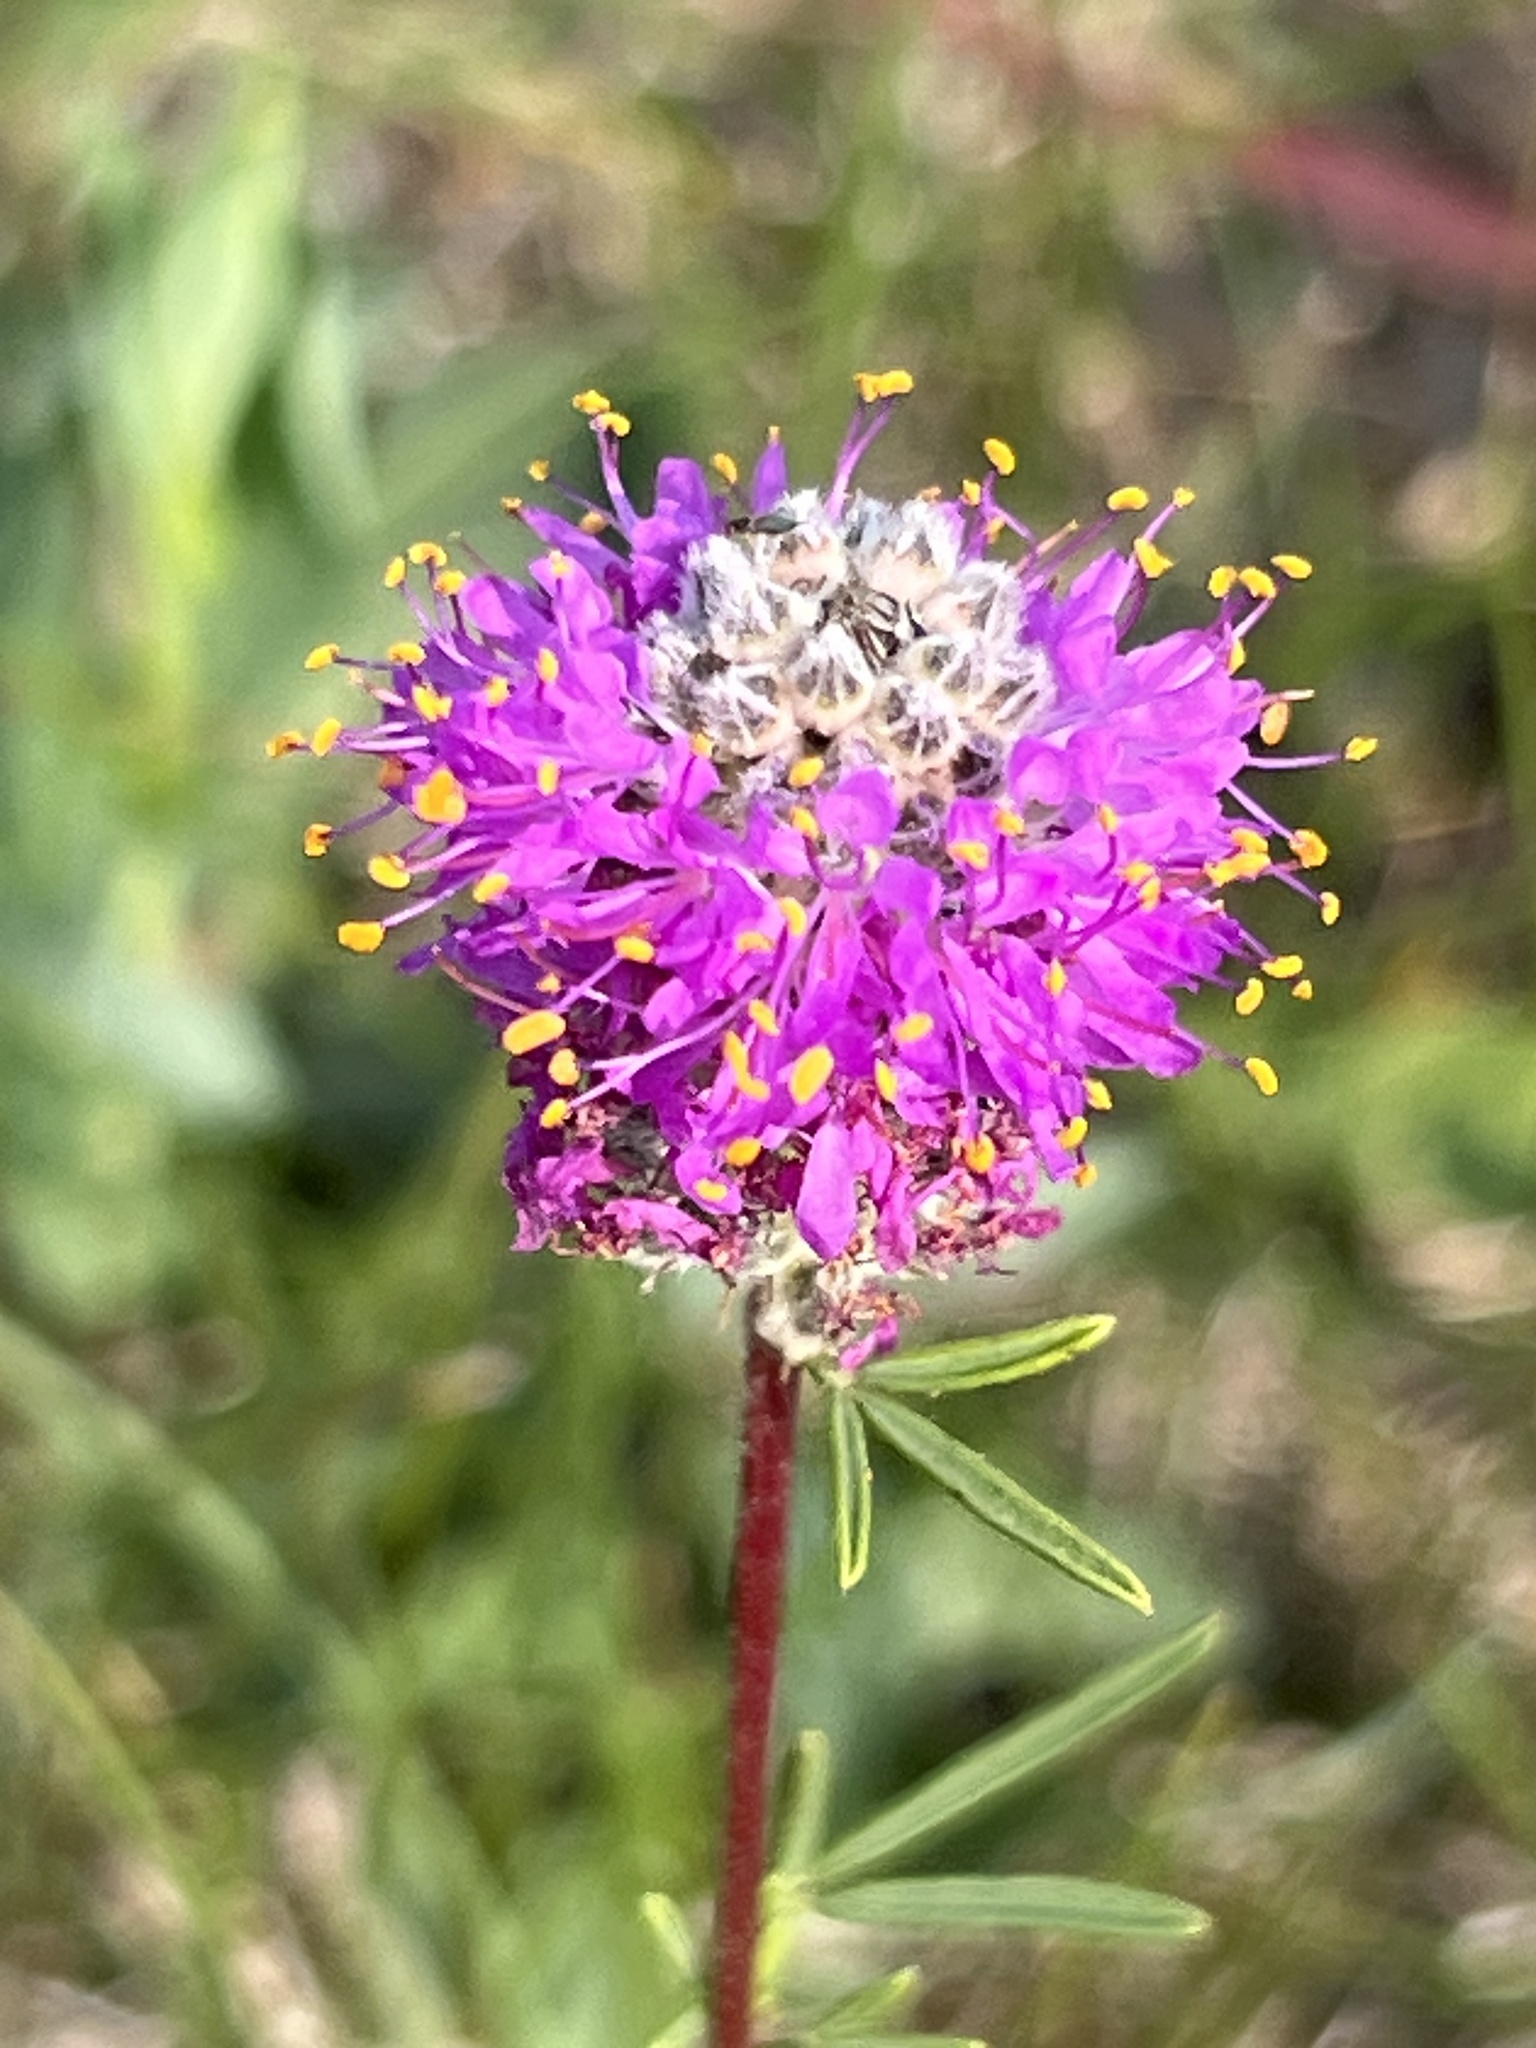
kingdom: Plantae
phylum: Tracheophyta
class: Magnoliopsida
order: Fabales
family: Fabaceae
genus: Dalea
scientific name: Dalea purpurea
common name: Purple prairie-clover
